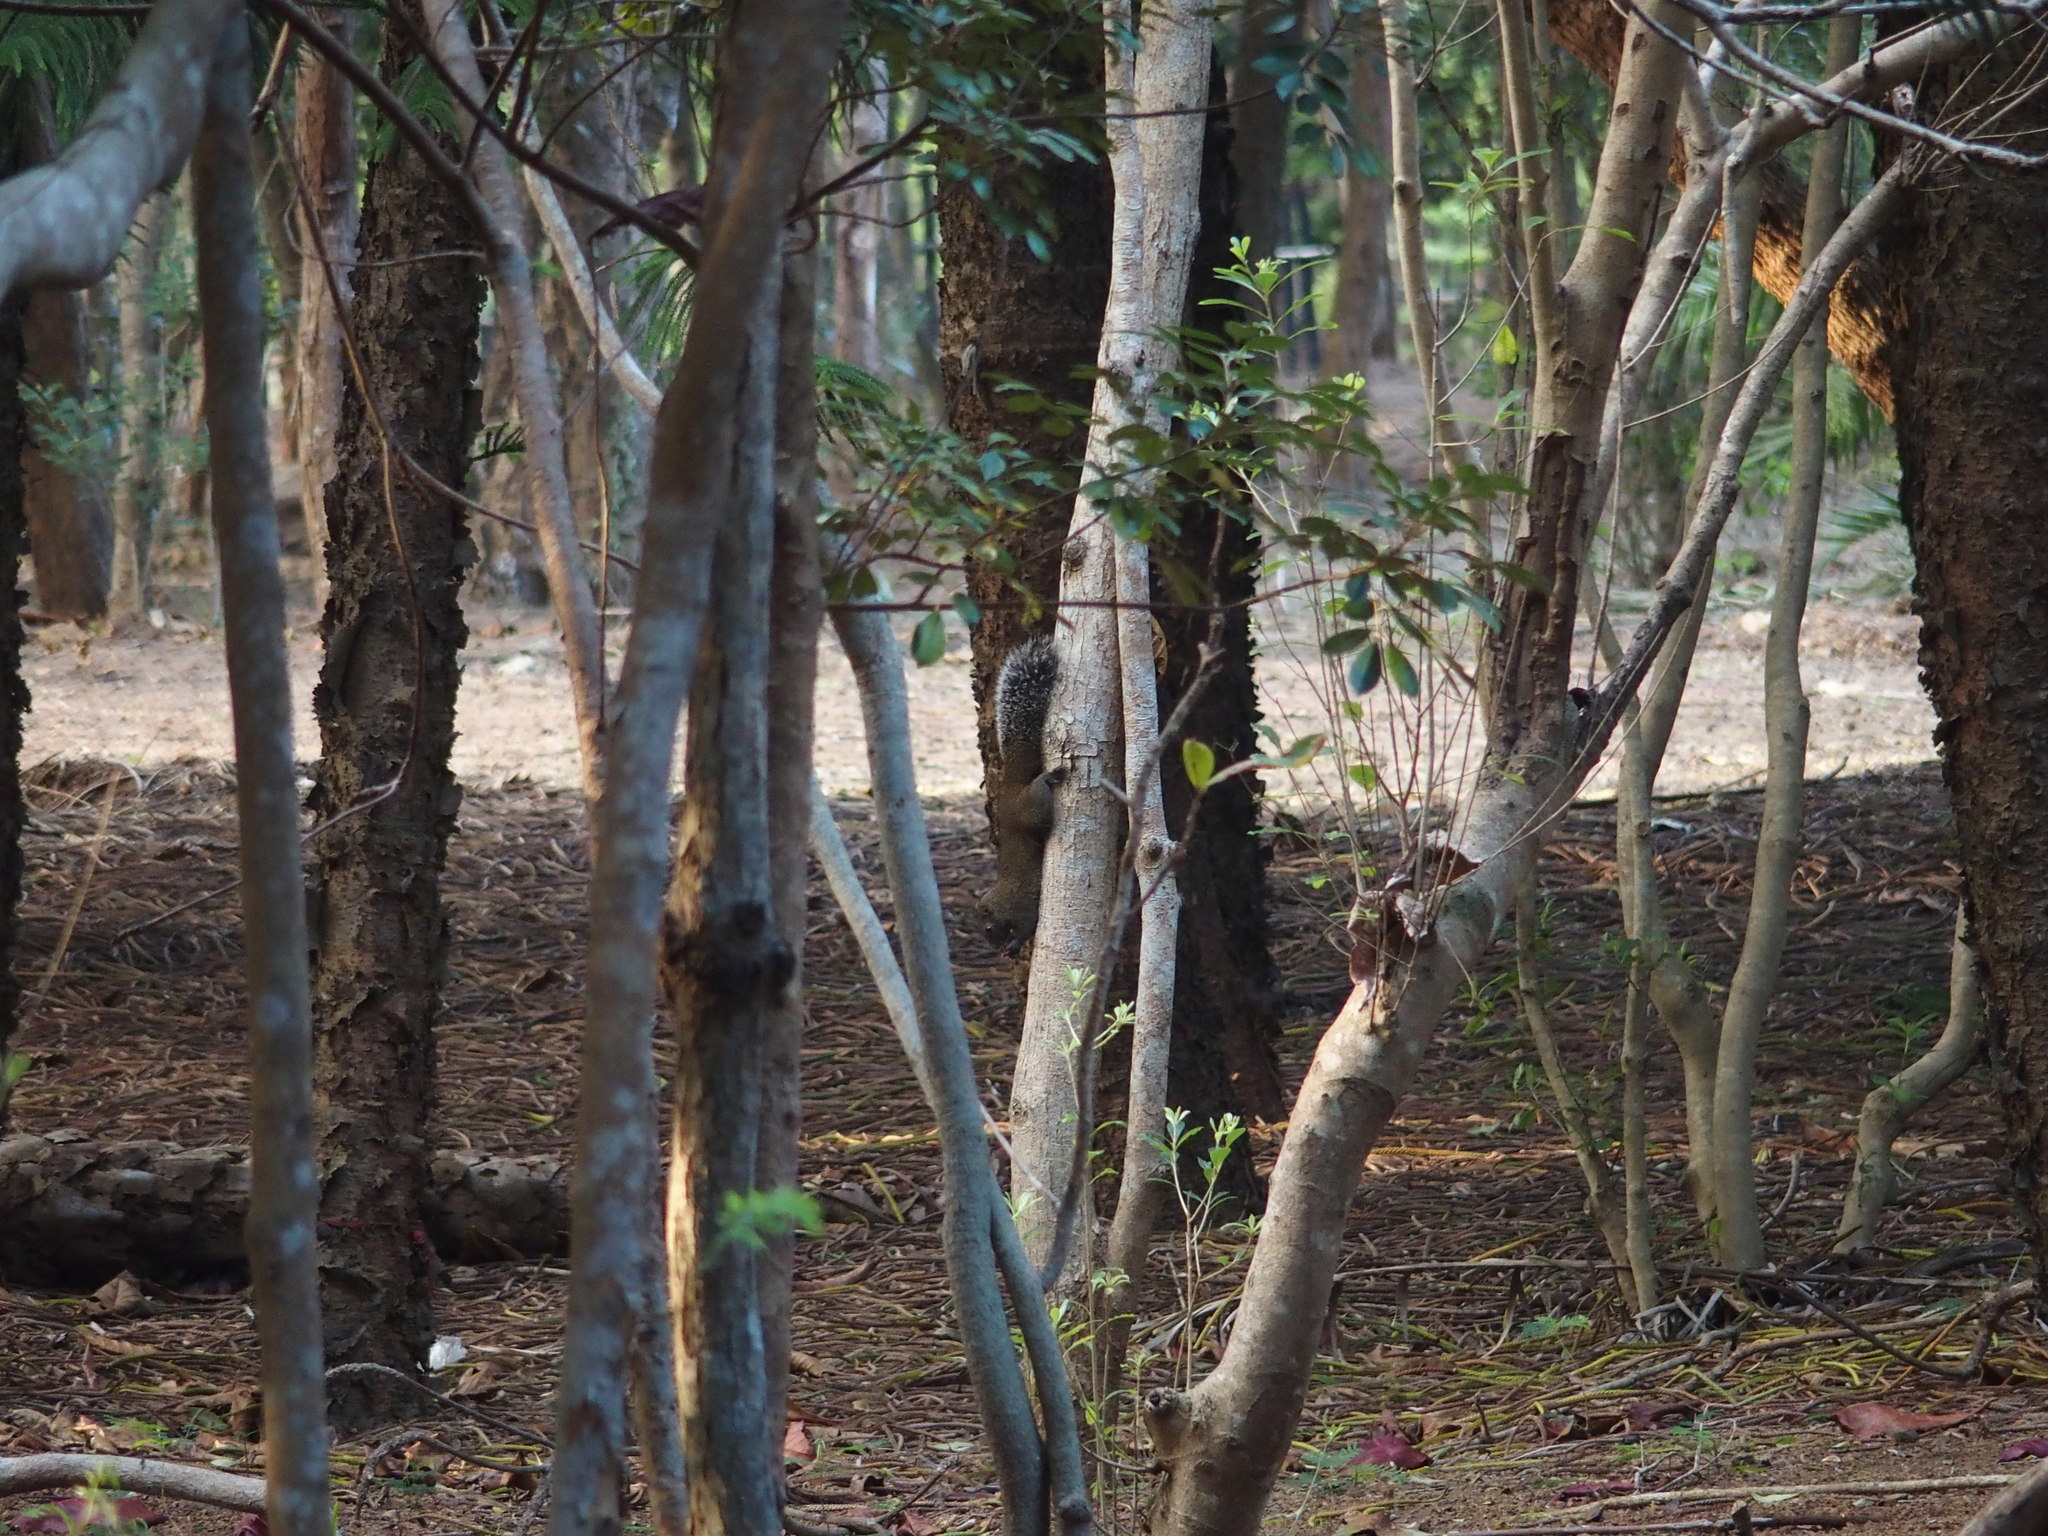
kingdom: Animalia
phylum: Chordata
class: Mammalia
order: Rodentia
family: Sciuridae
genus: Callosciurus
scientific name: Callosciurus erythraeus
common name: Pallas's squirrel
